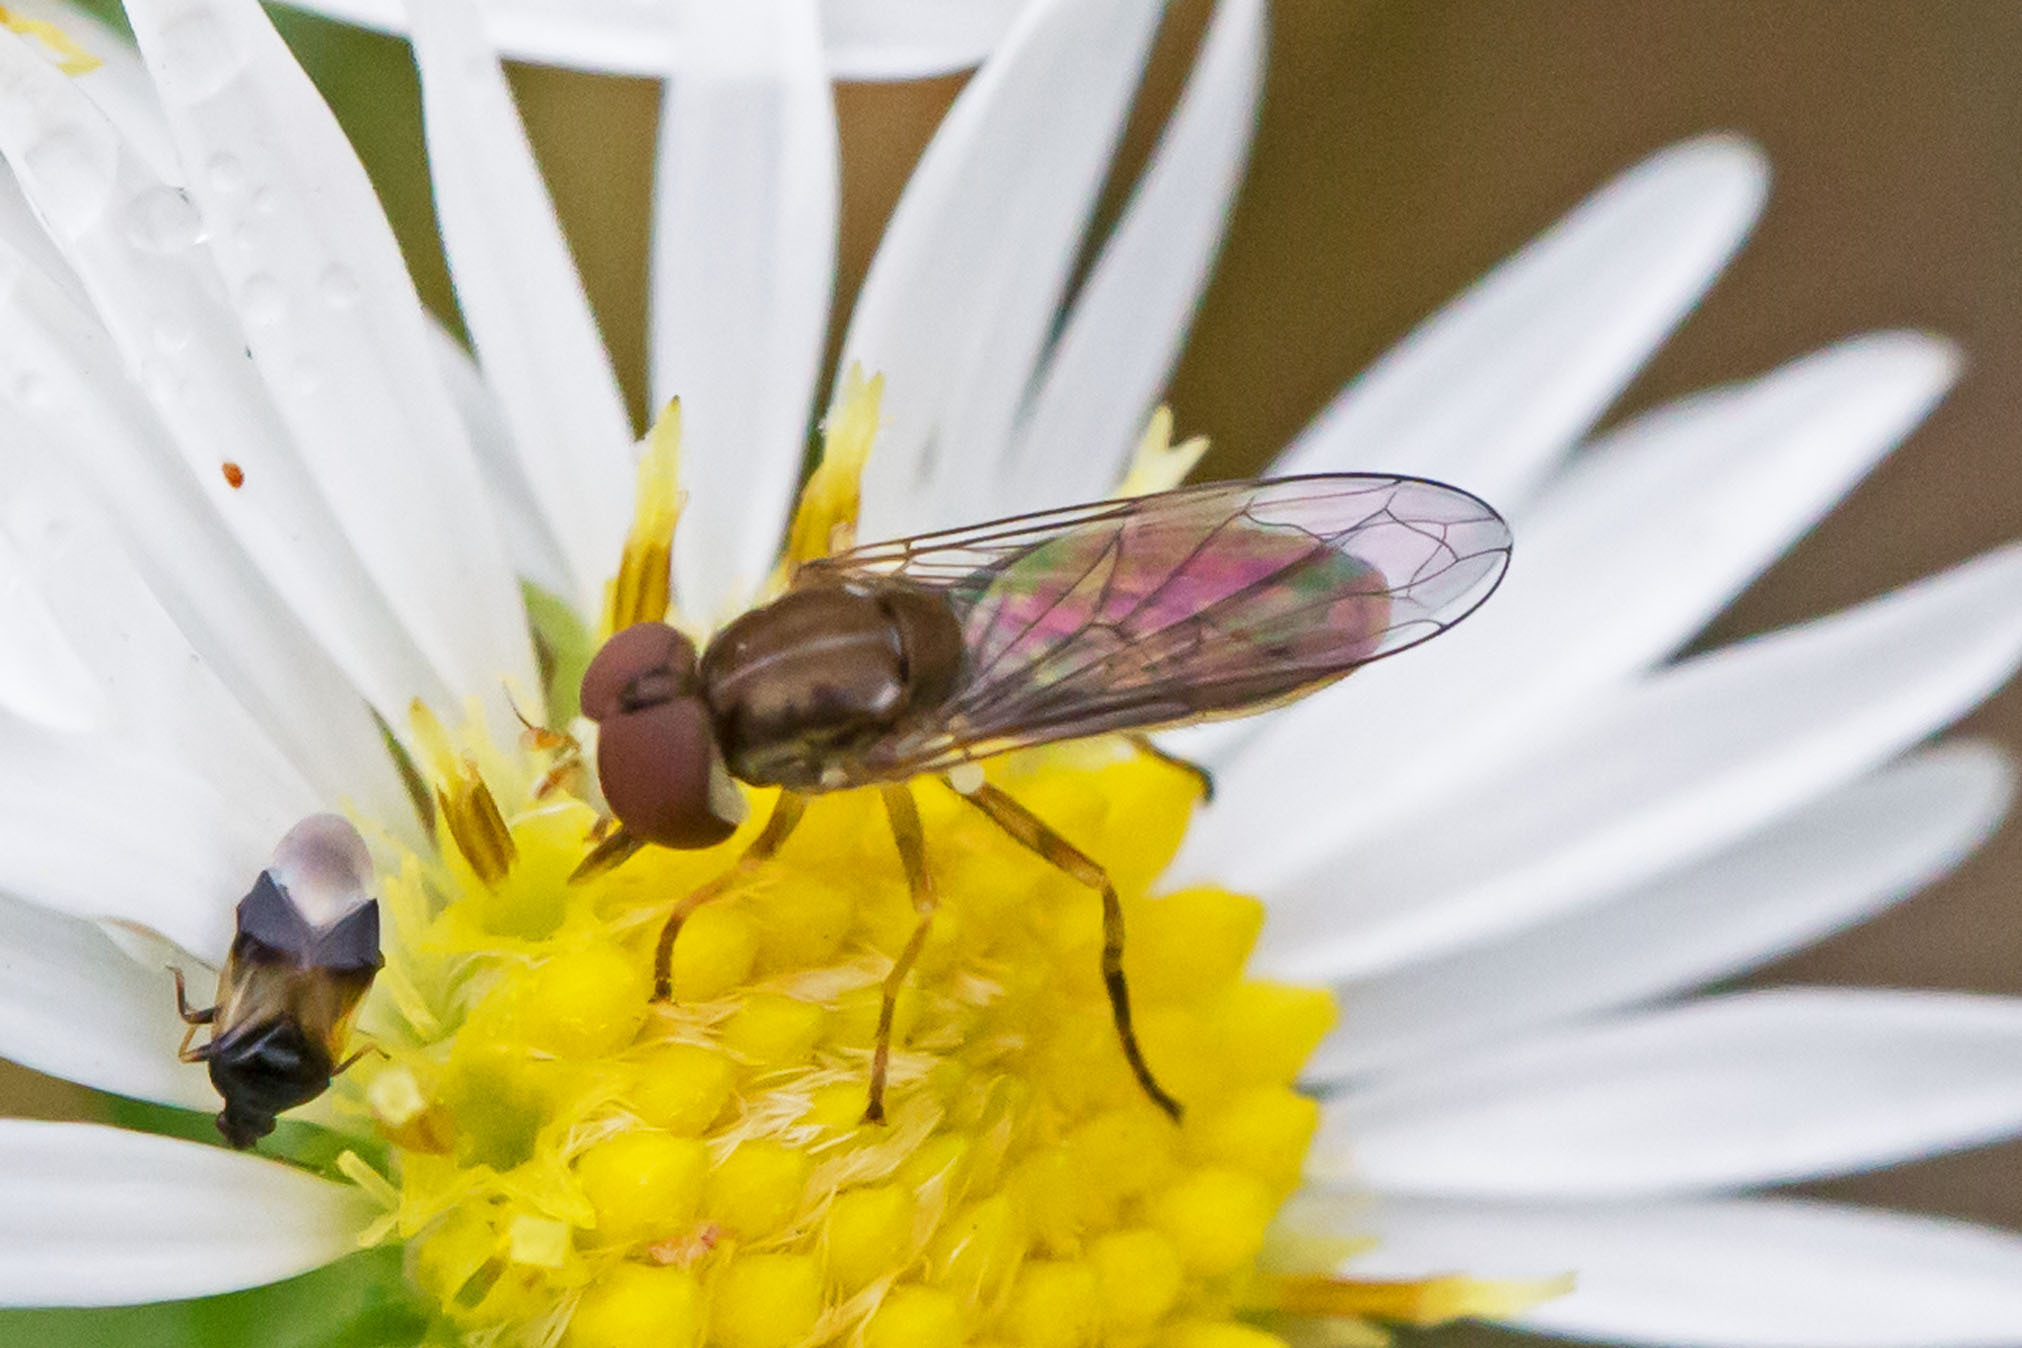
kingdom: Animalia
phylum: Arthropoda
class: Insecta
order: Diptera
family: Syrphidae
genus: Toxomerus
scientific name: Toxomerus marginatus
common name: Syrphid fly
